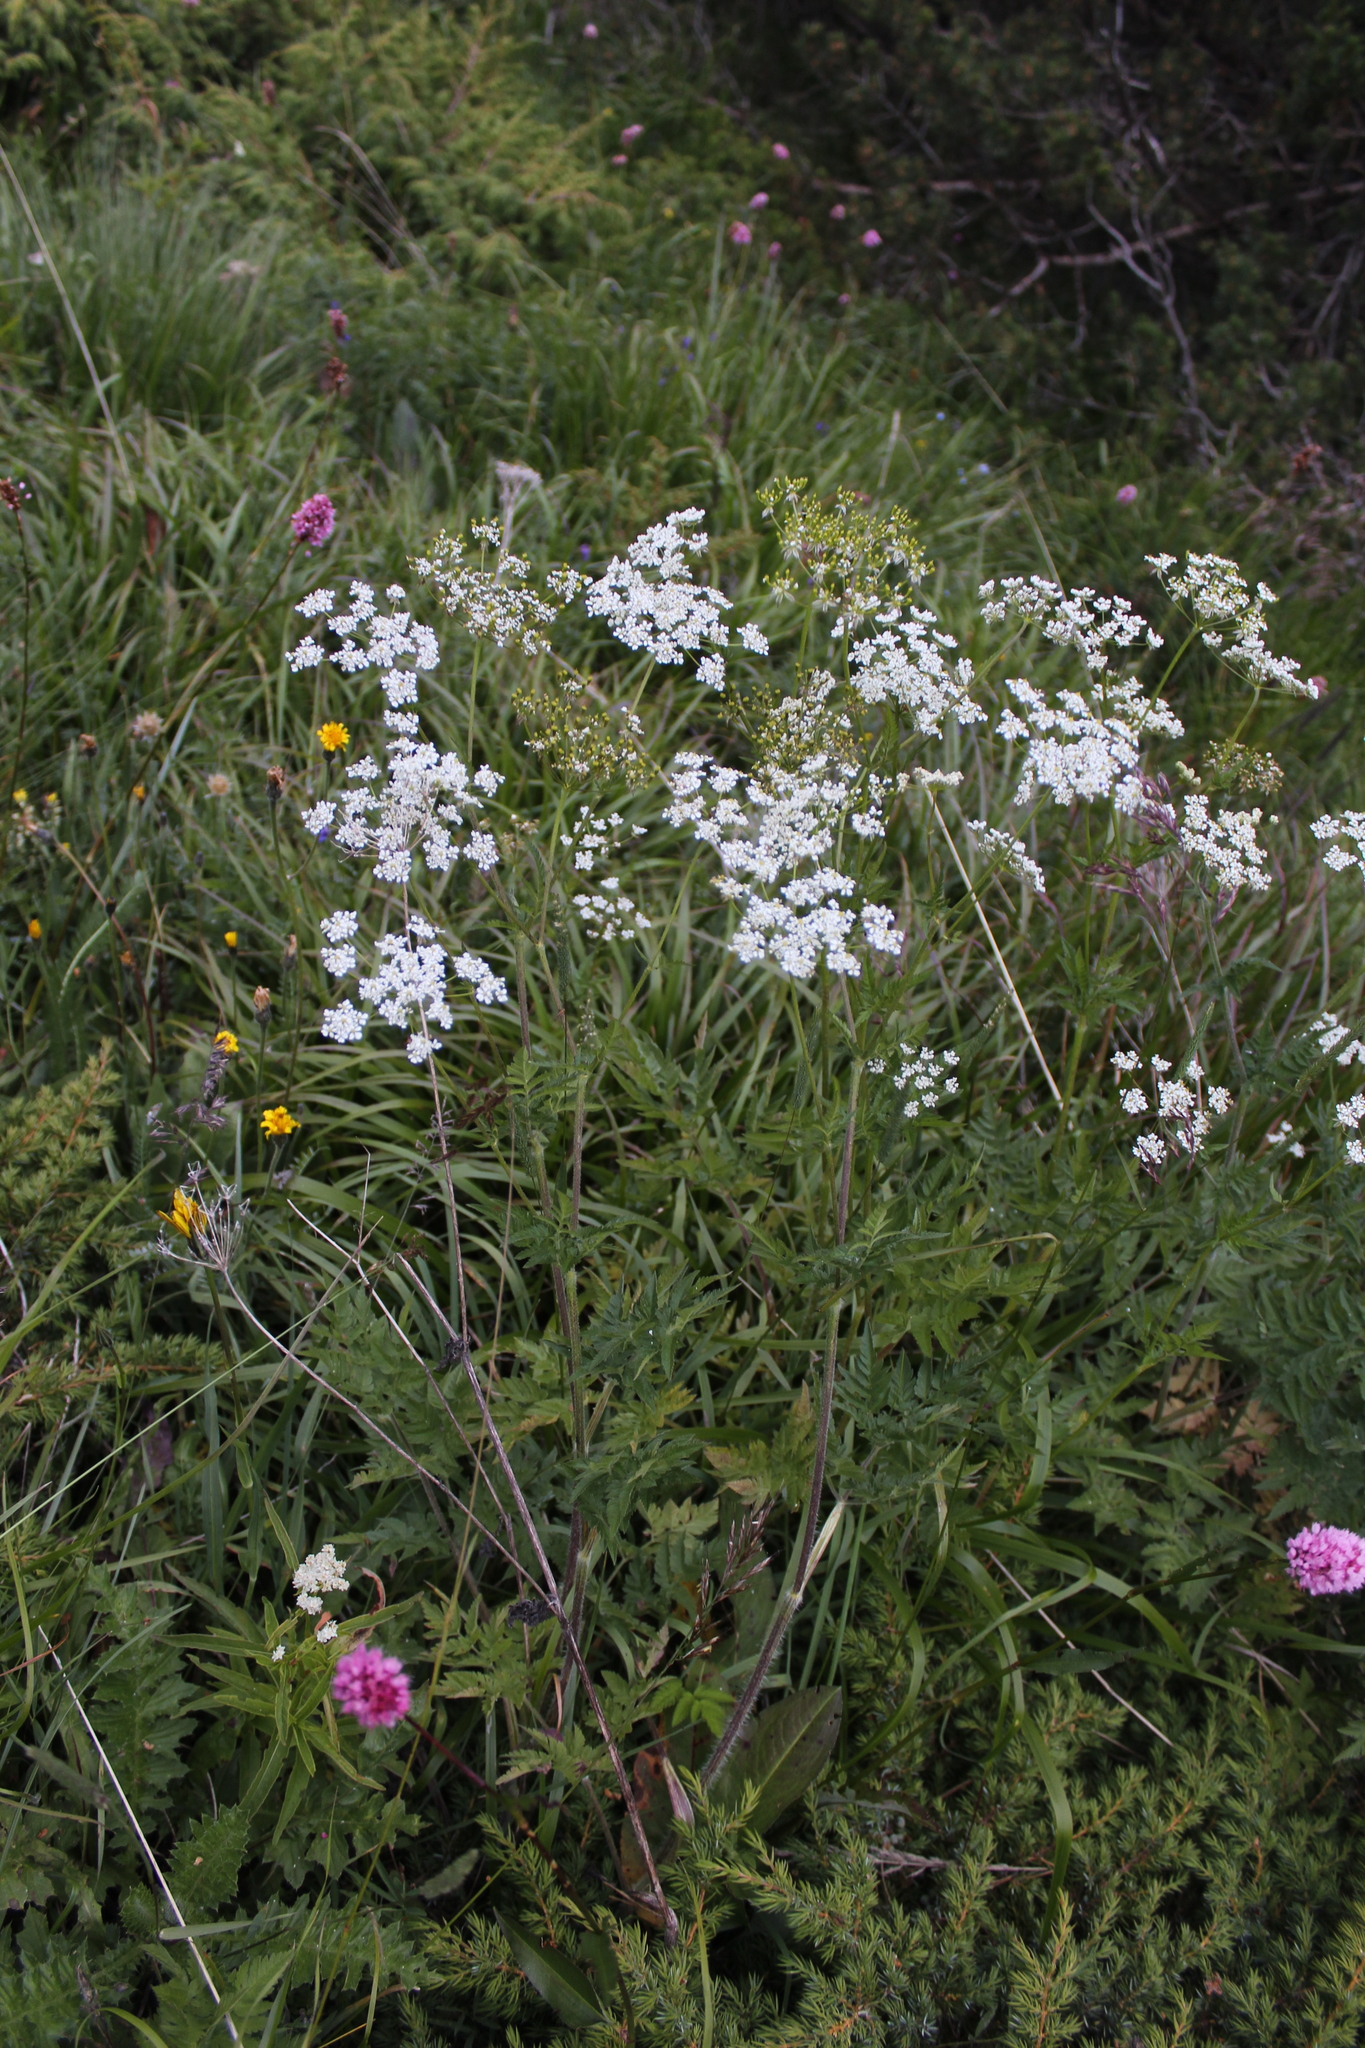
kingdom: Plantae
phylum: Tracheophyta
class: Magnoliopsida
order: Apiales
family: Apiaceae
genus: Chaerophyllum
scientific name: Chaerophyllum aureum
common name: Golden chervil
